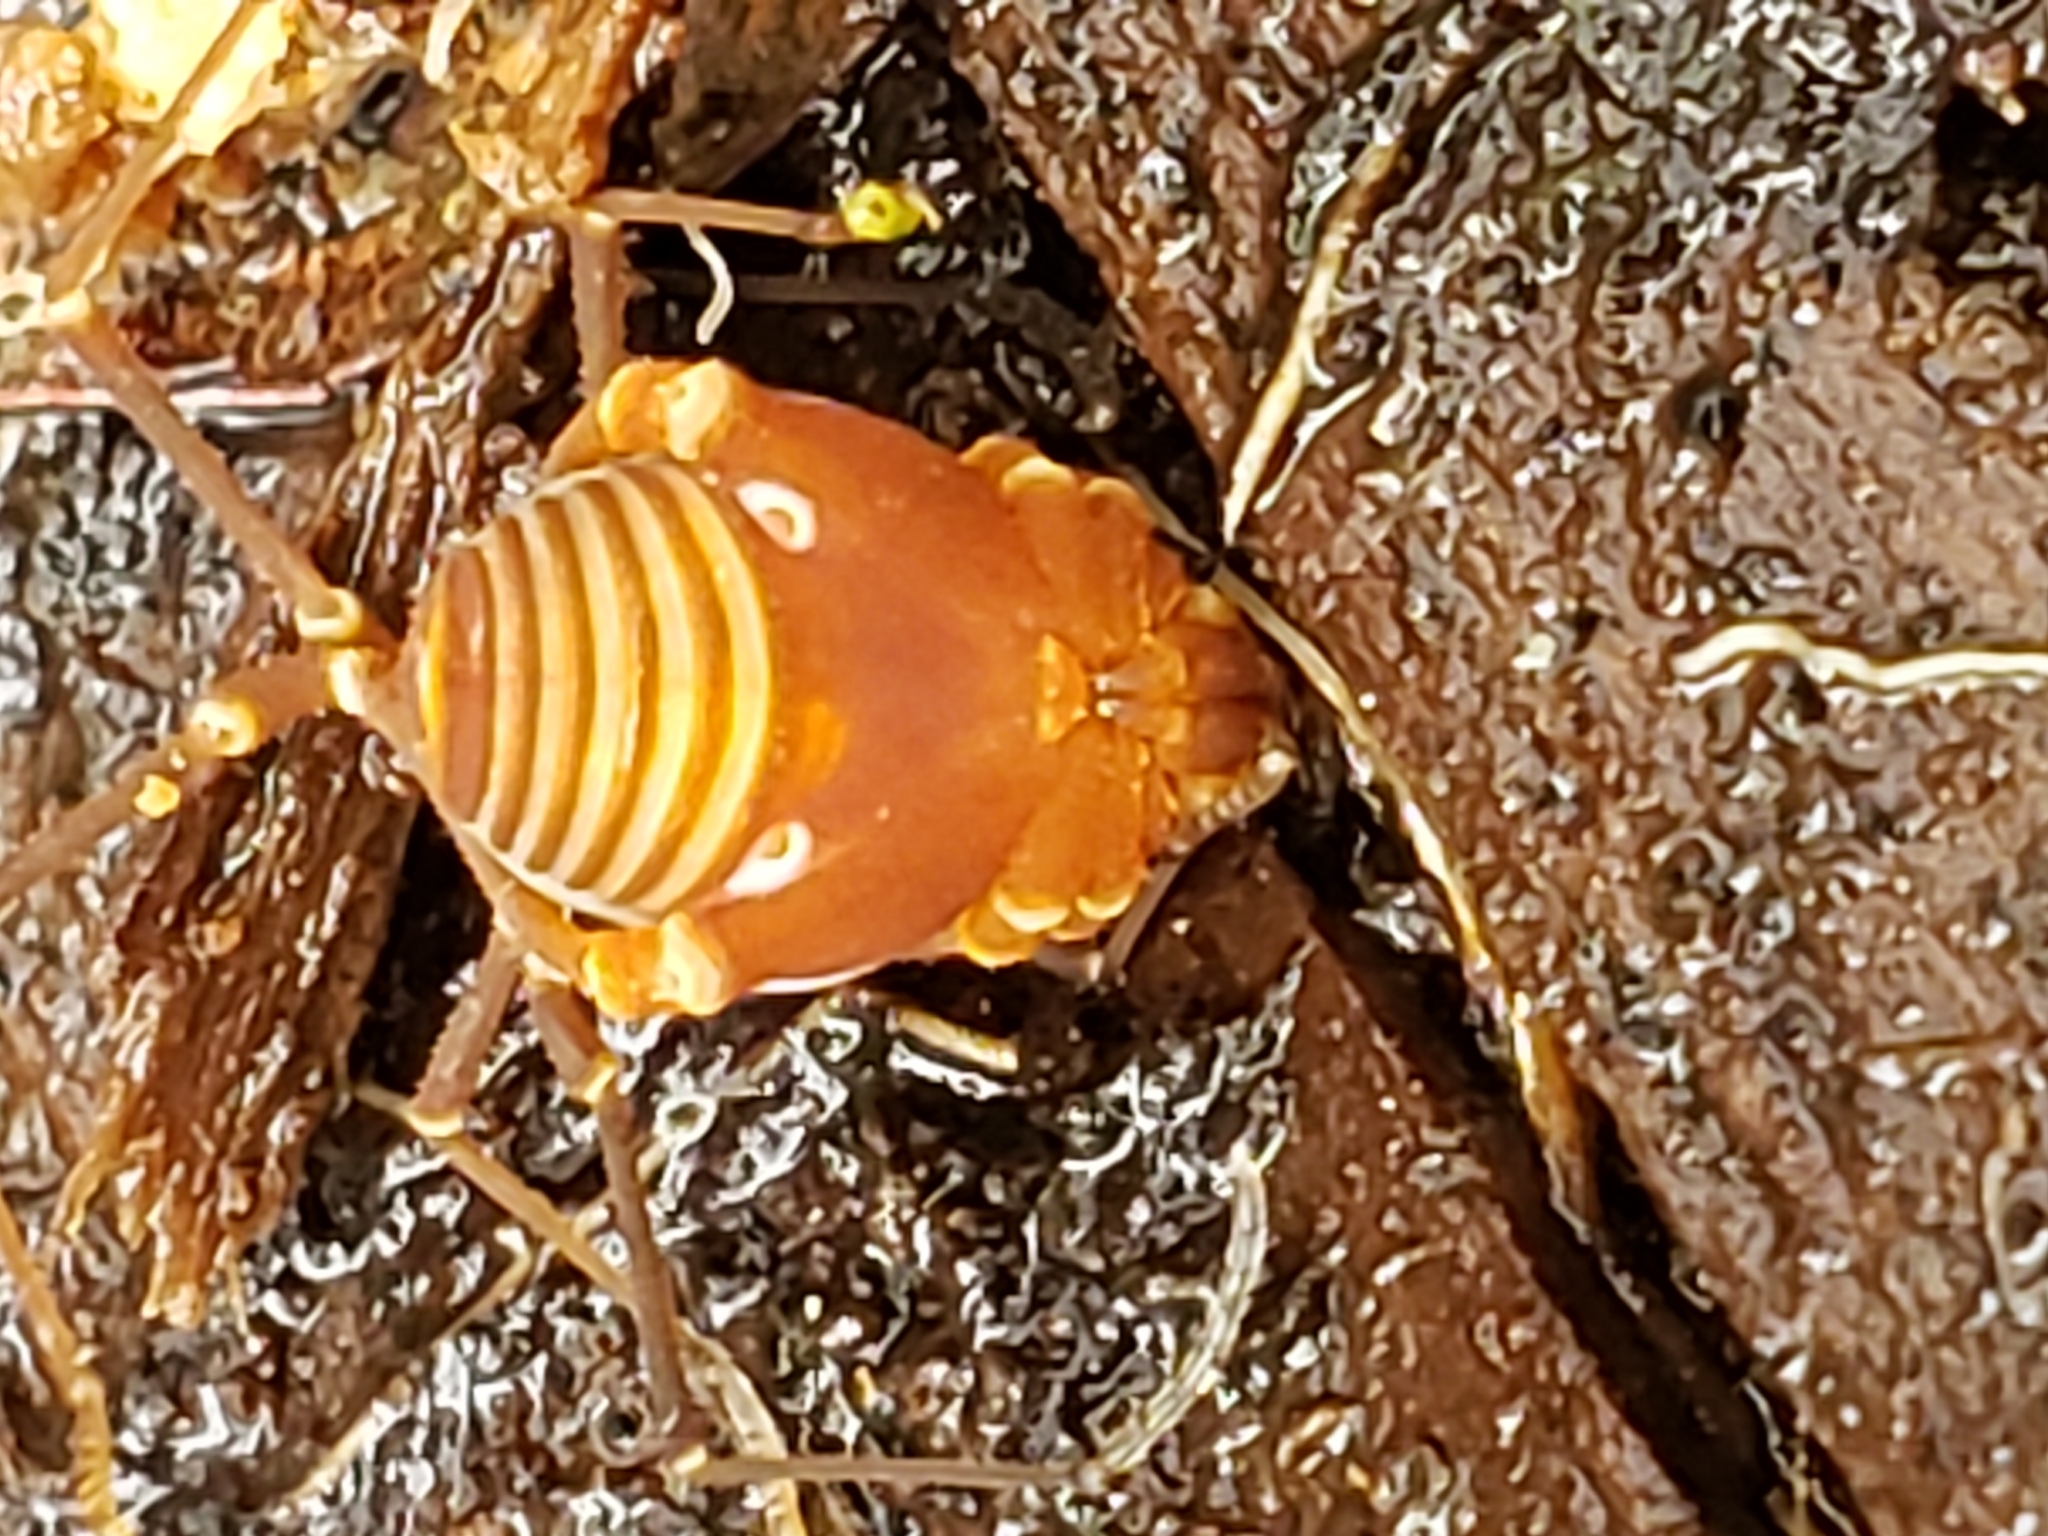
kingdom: Animalia
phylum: Arthropoda
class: Arachnida
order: Opiliones
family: Cosmetidae
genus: Libitioides
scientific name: Libitioides sayi
